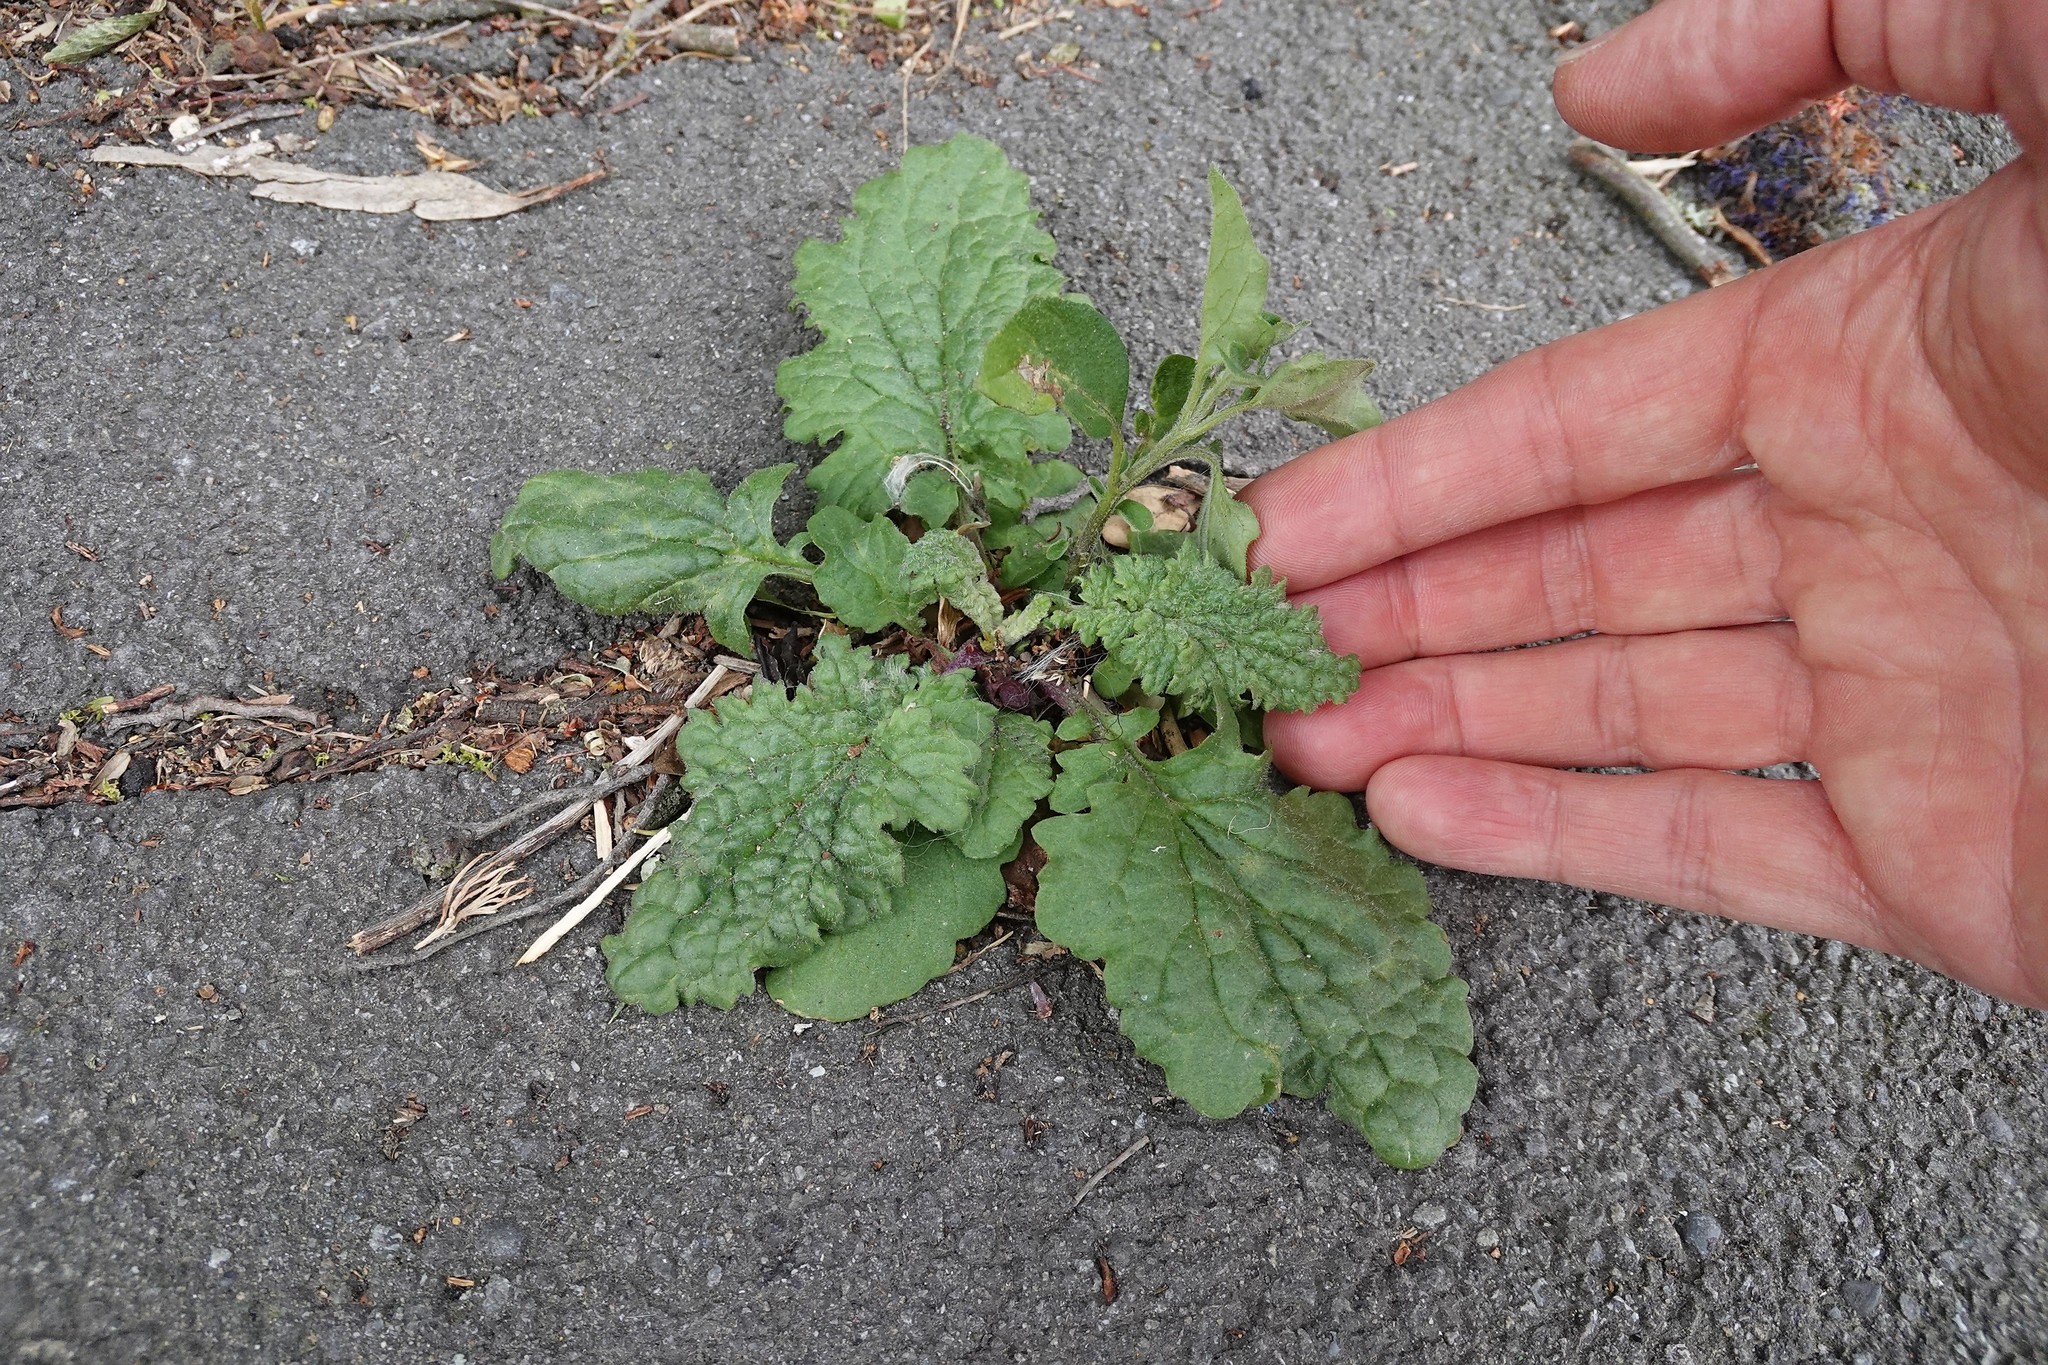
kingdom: Plantae
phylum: Tracheophyta
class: Magnoliopsida
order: Asterales
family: Asteraceae
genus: Jacobaea
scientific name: Jacobaea vulgaris
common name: Stinking willie
